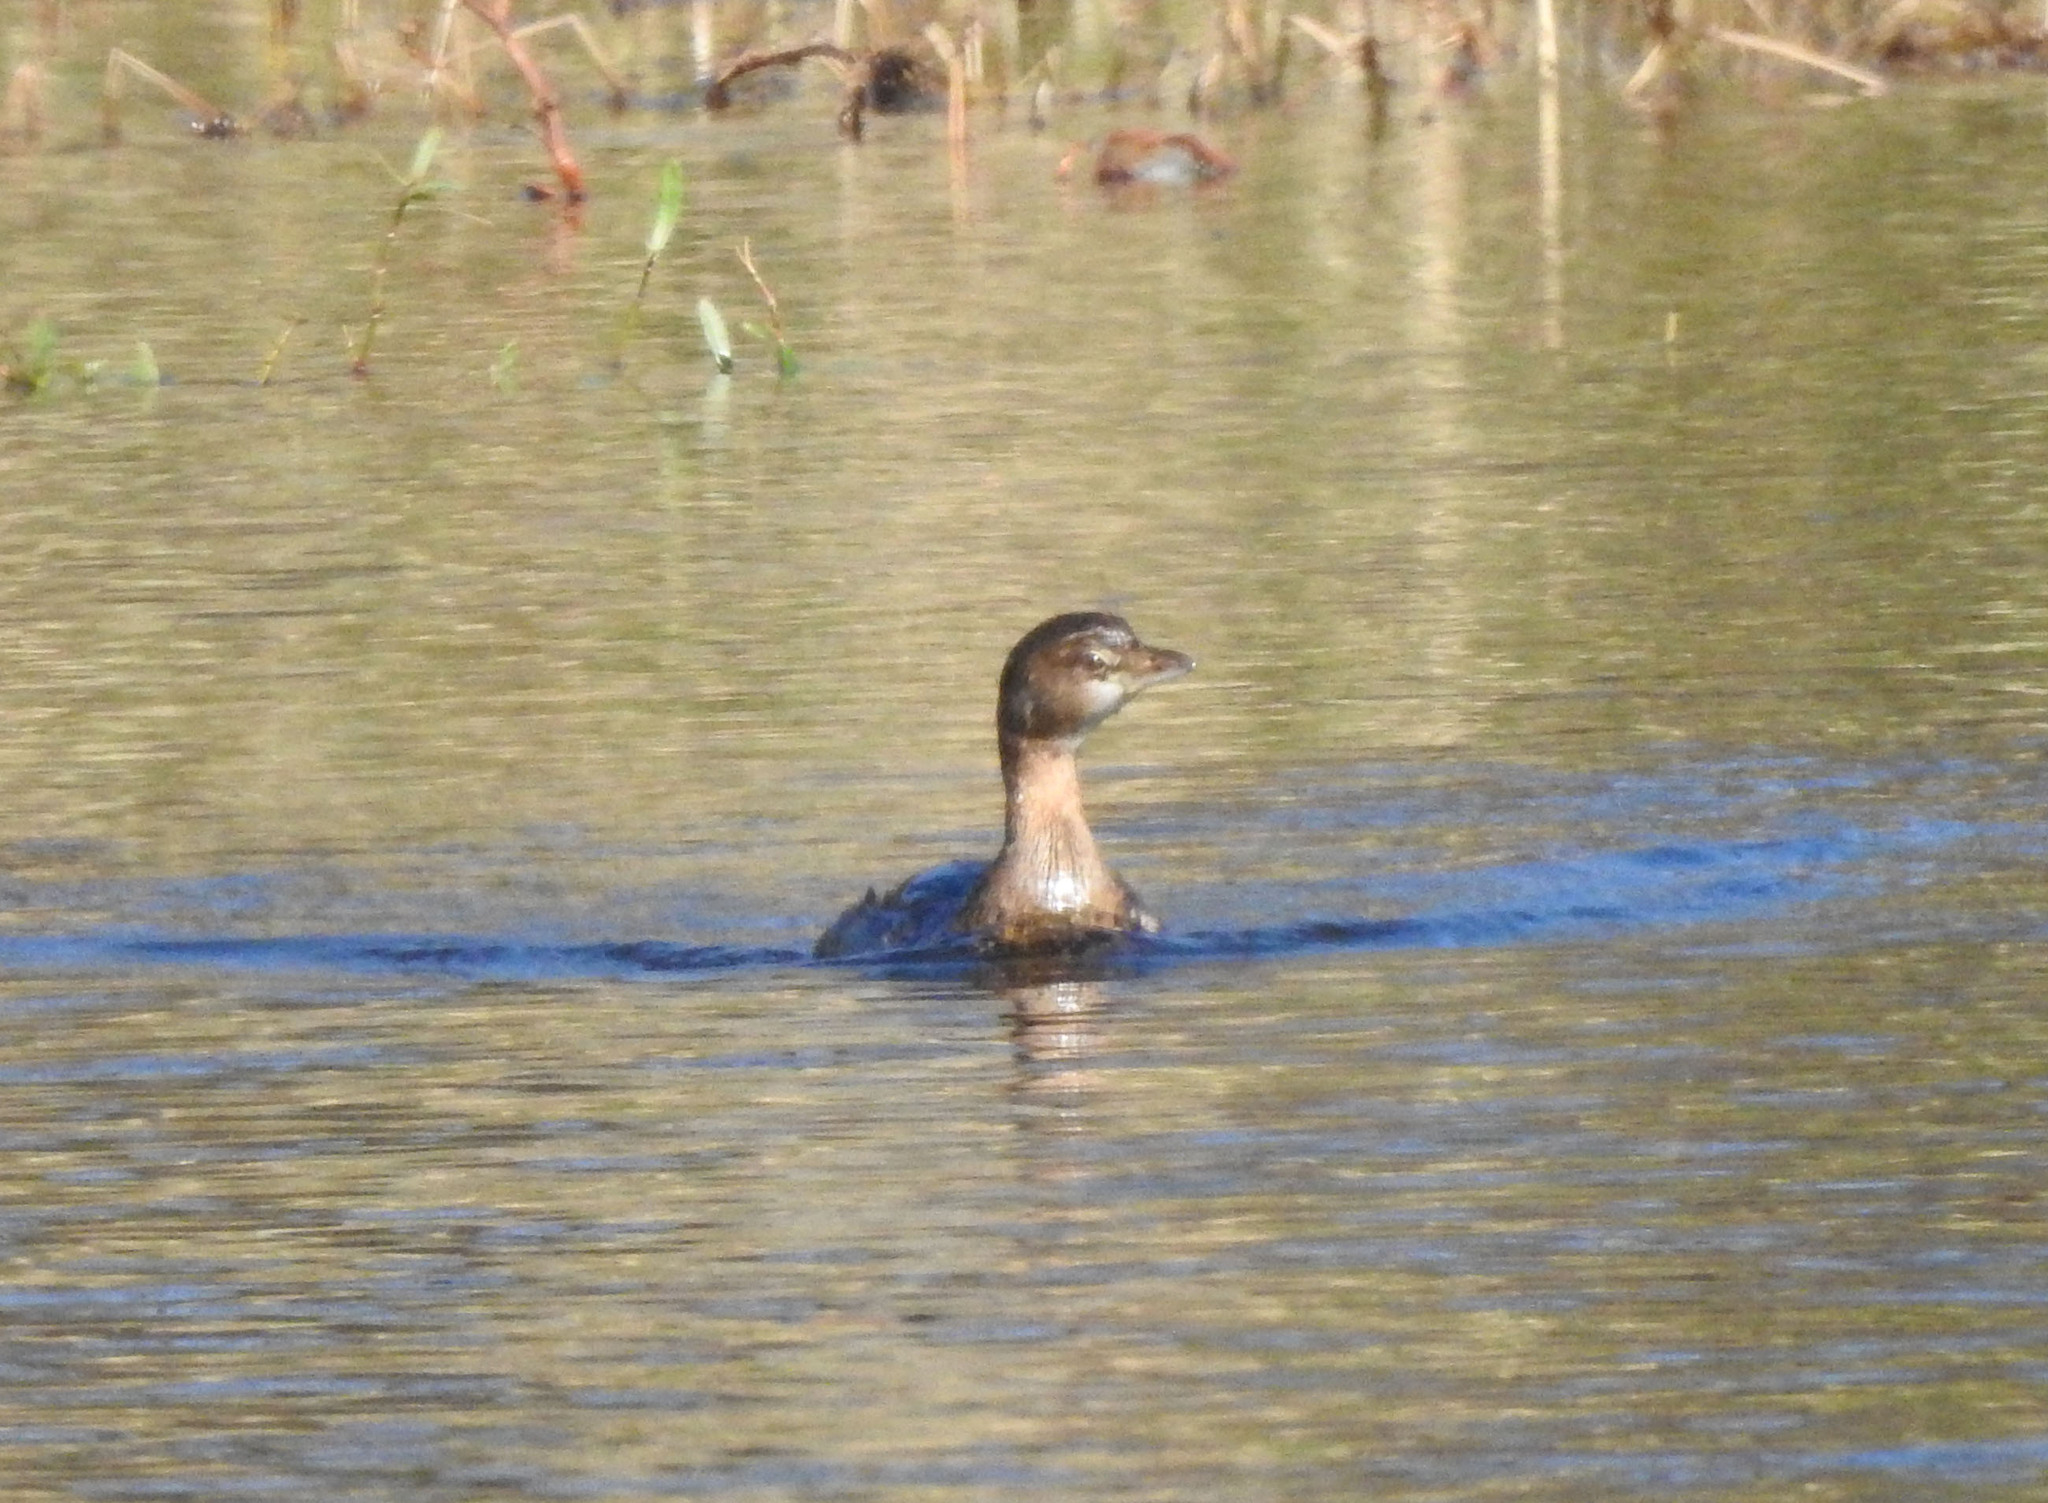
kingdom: Animalia
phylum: Chordata
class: Aves
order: Podicipediformes
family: Podicipedidae
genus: Podilymbus
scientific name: Podilymbus podiceps
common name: Pied-billed grebe
